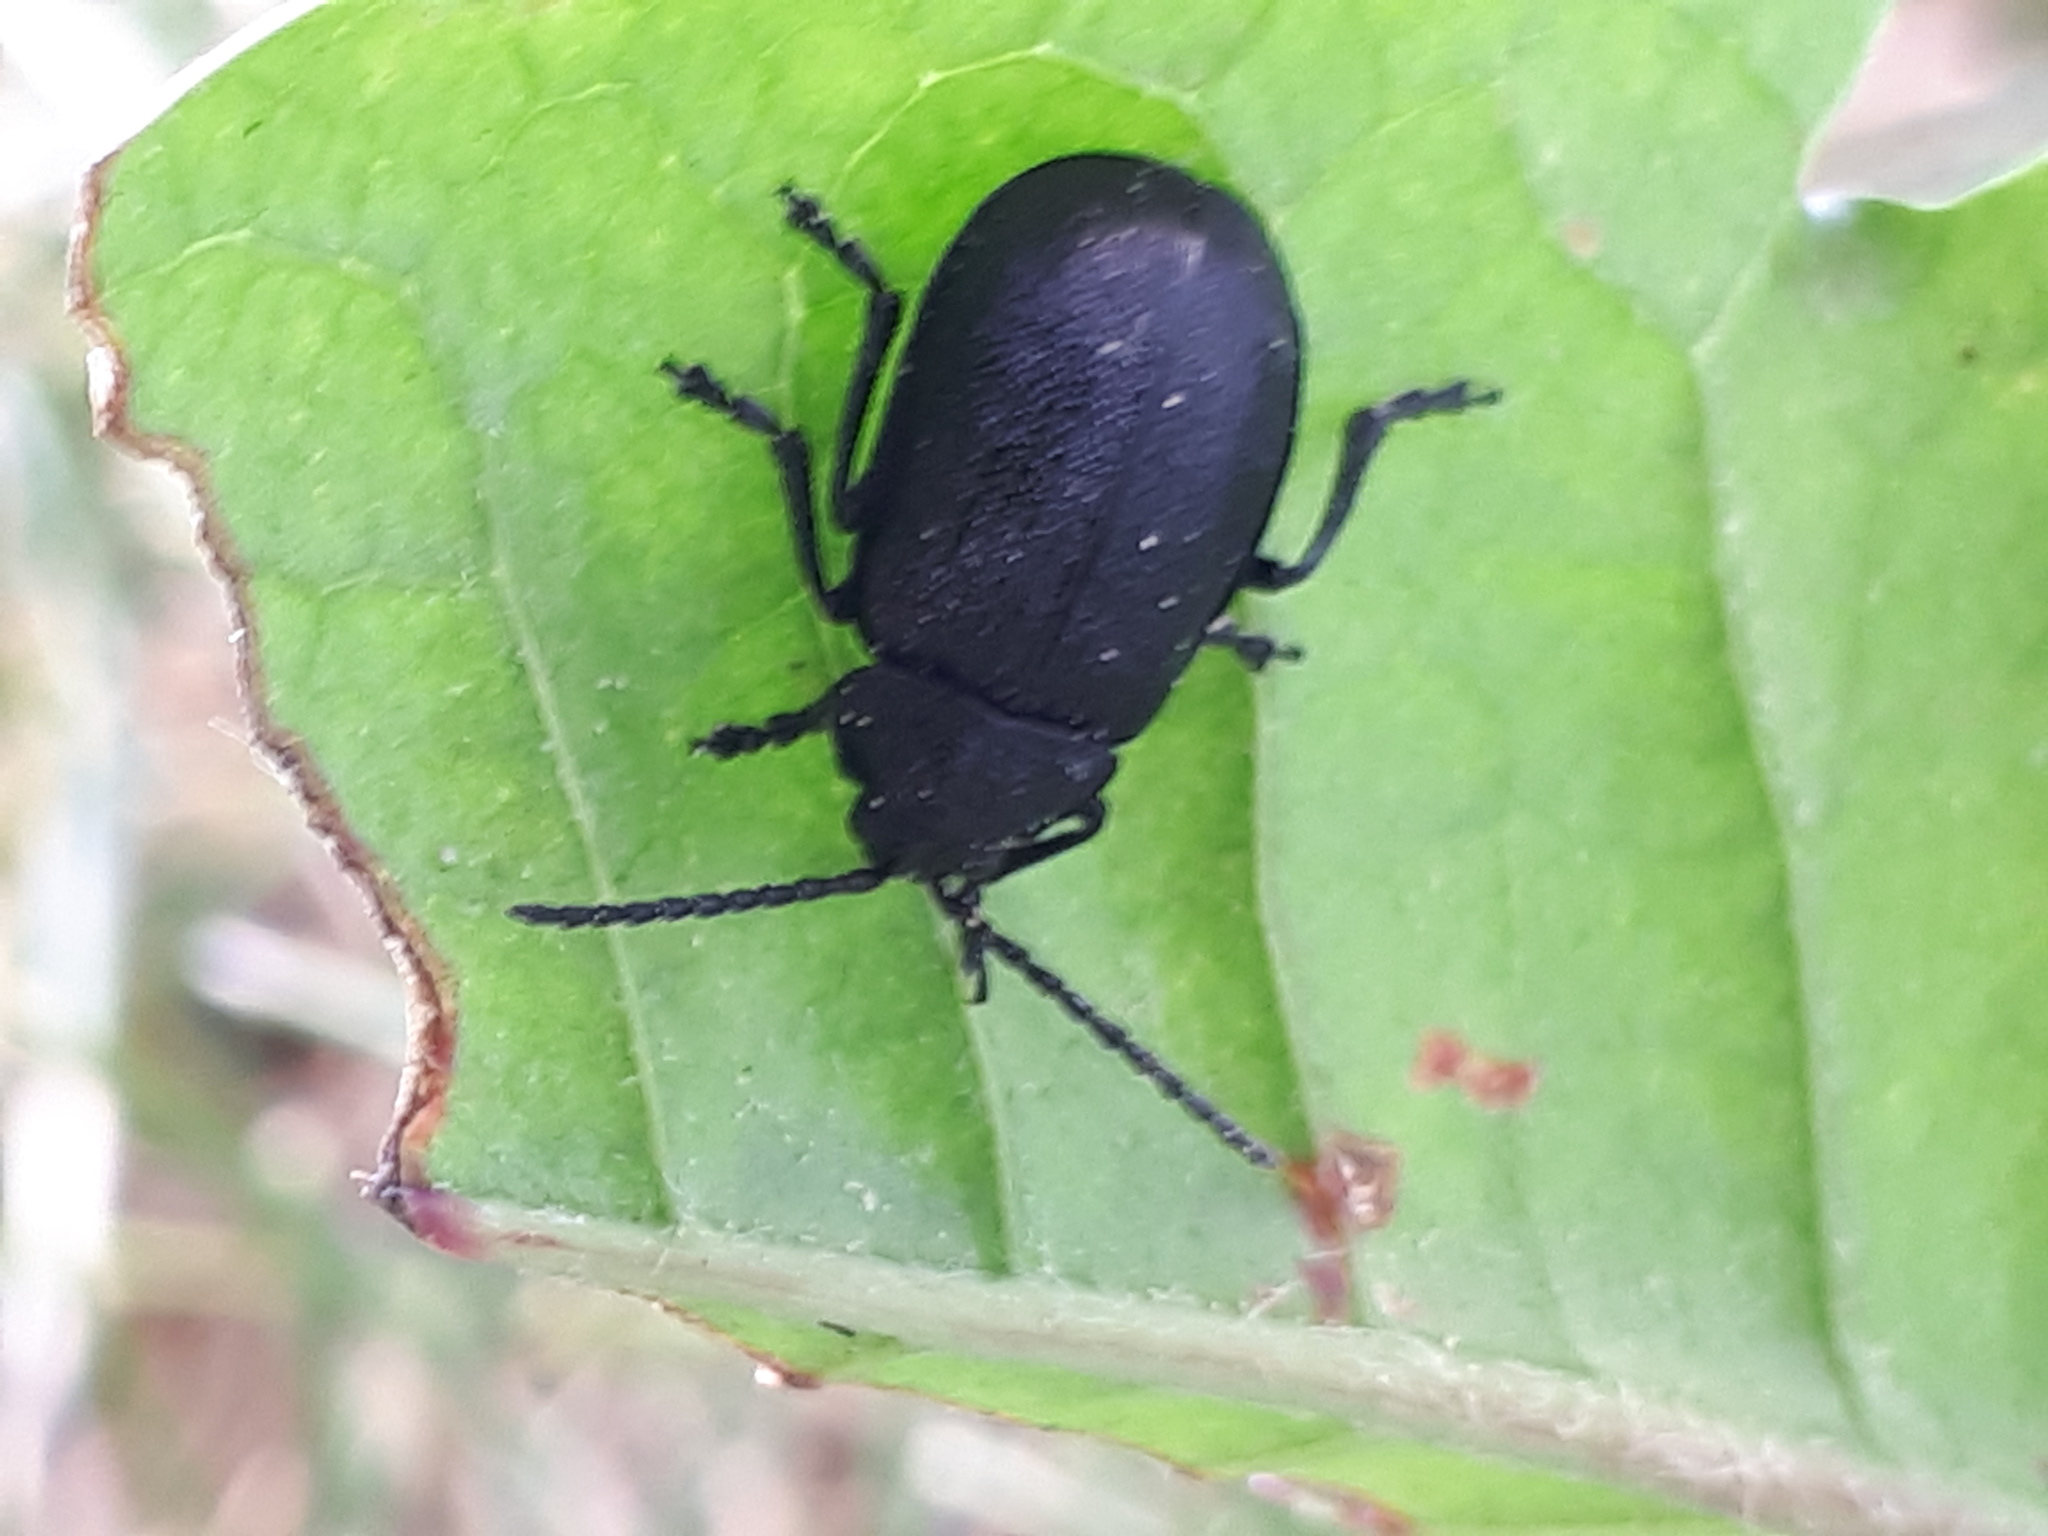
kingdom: Animalia
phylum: Arthropoda
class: Insecta
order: Coleoptera
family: Chrysomelidae
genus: Galeruca
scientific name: Galeruca tanaceti
